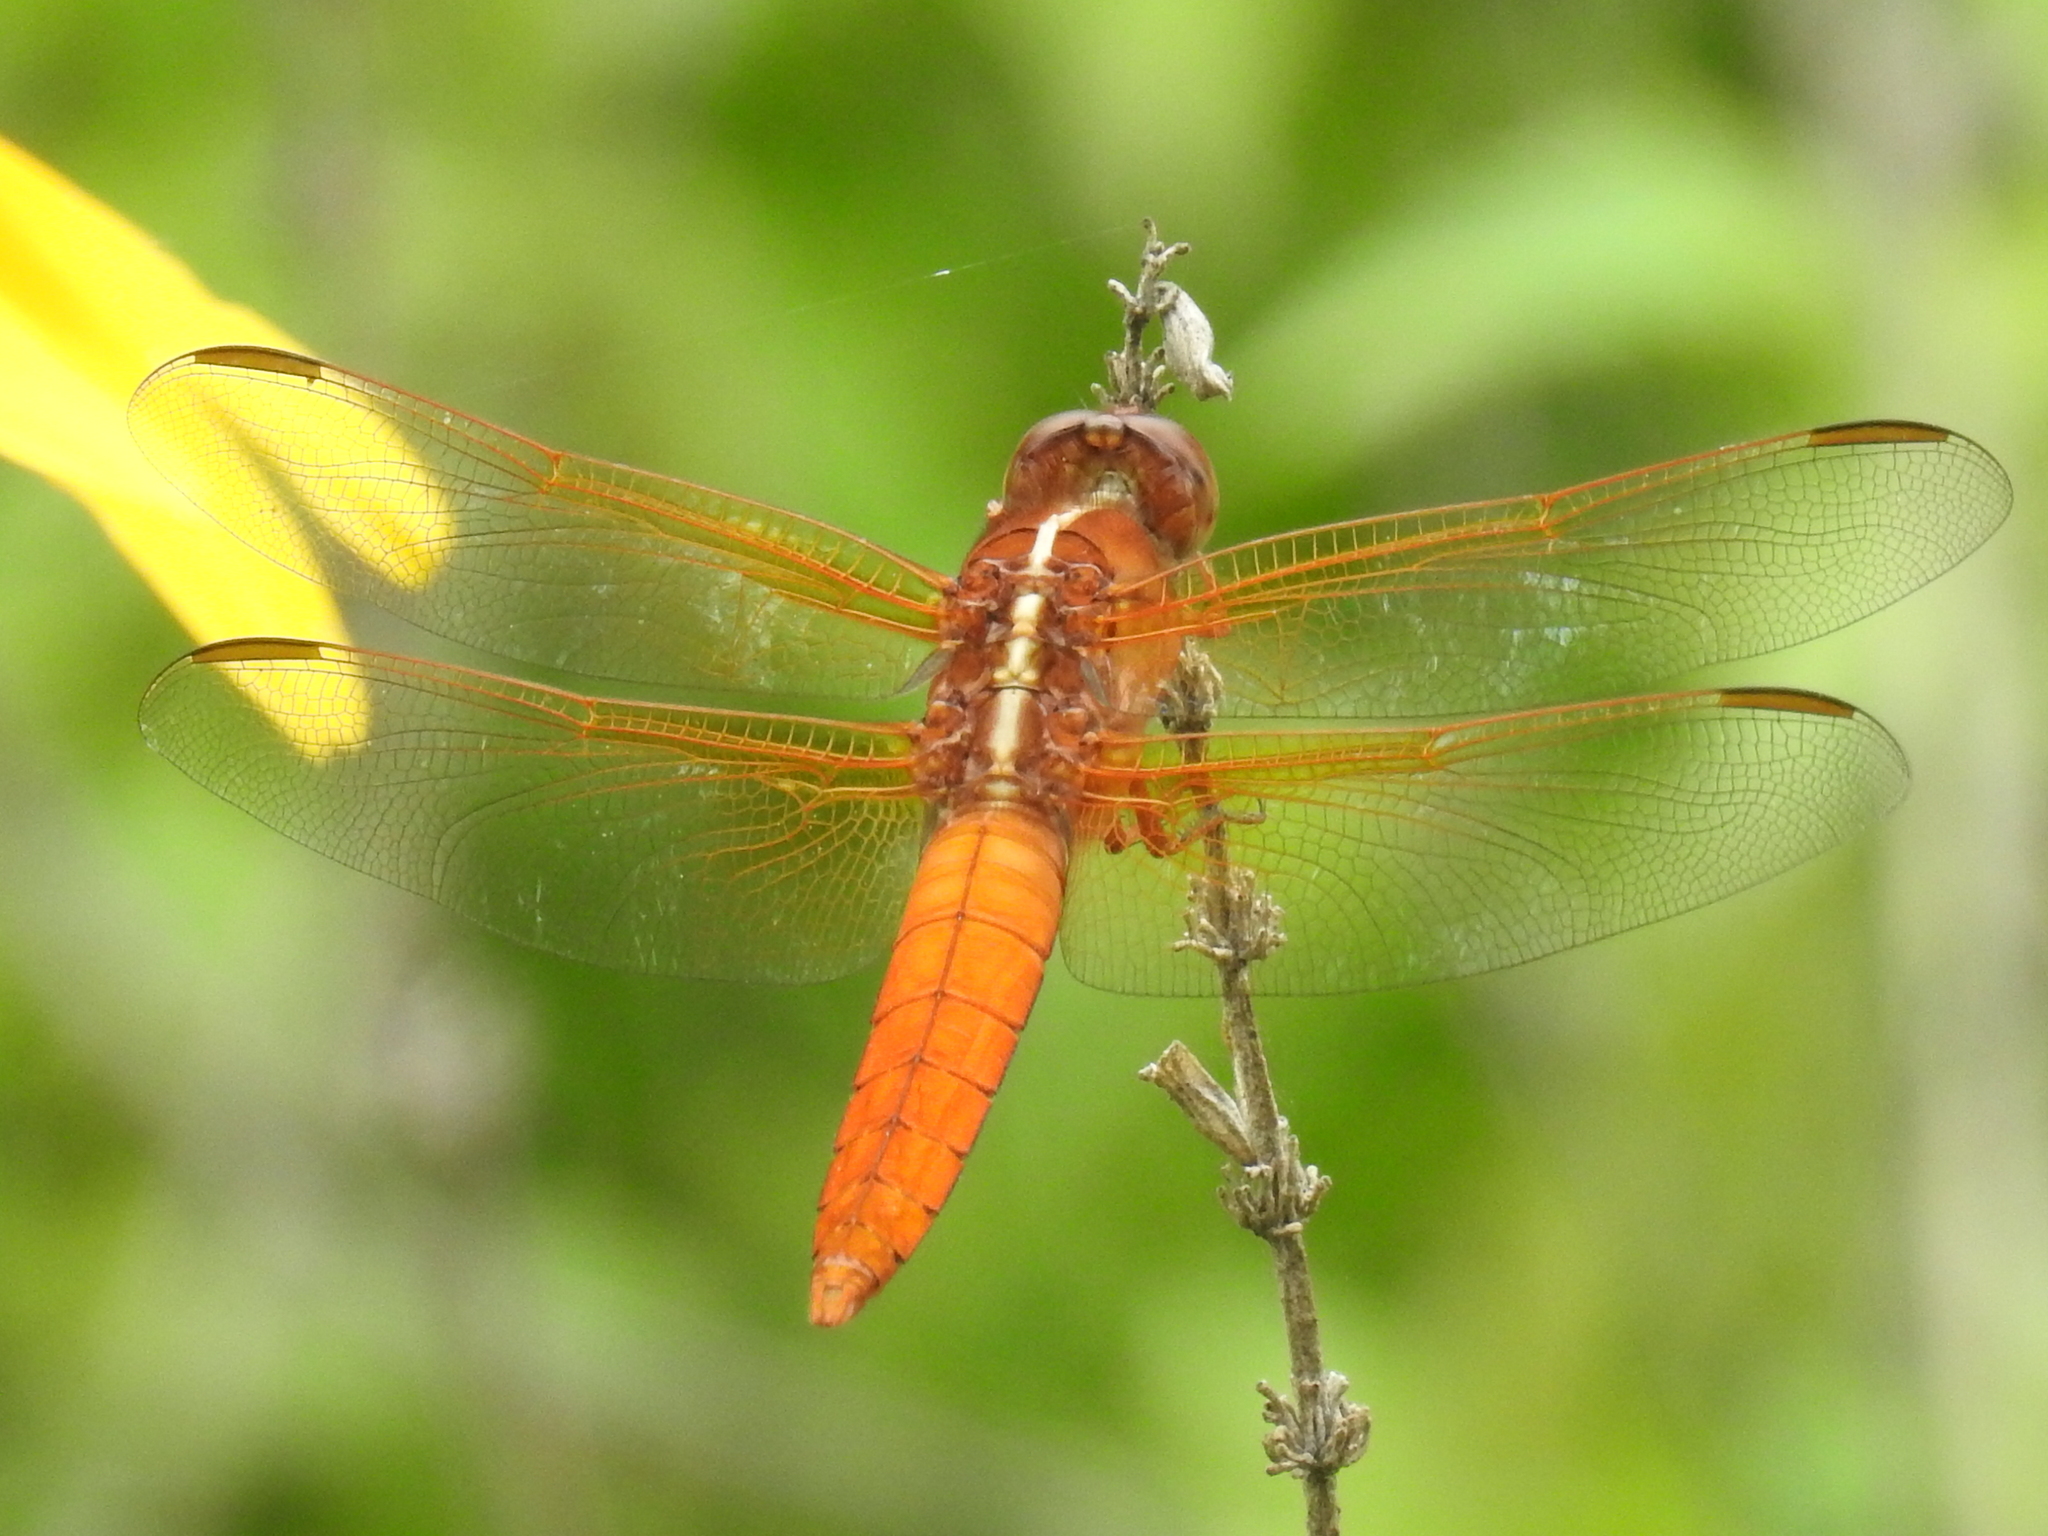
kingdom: Animalia
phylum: Arthropoda
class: Insecta
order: Odonata
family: Libellulidae
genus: Libellula
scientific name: Libellula croceipennis
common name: Neon skimmer
